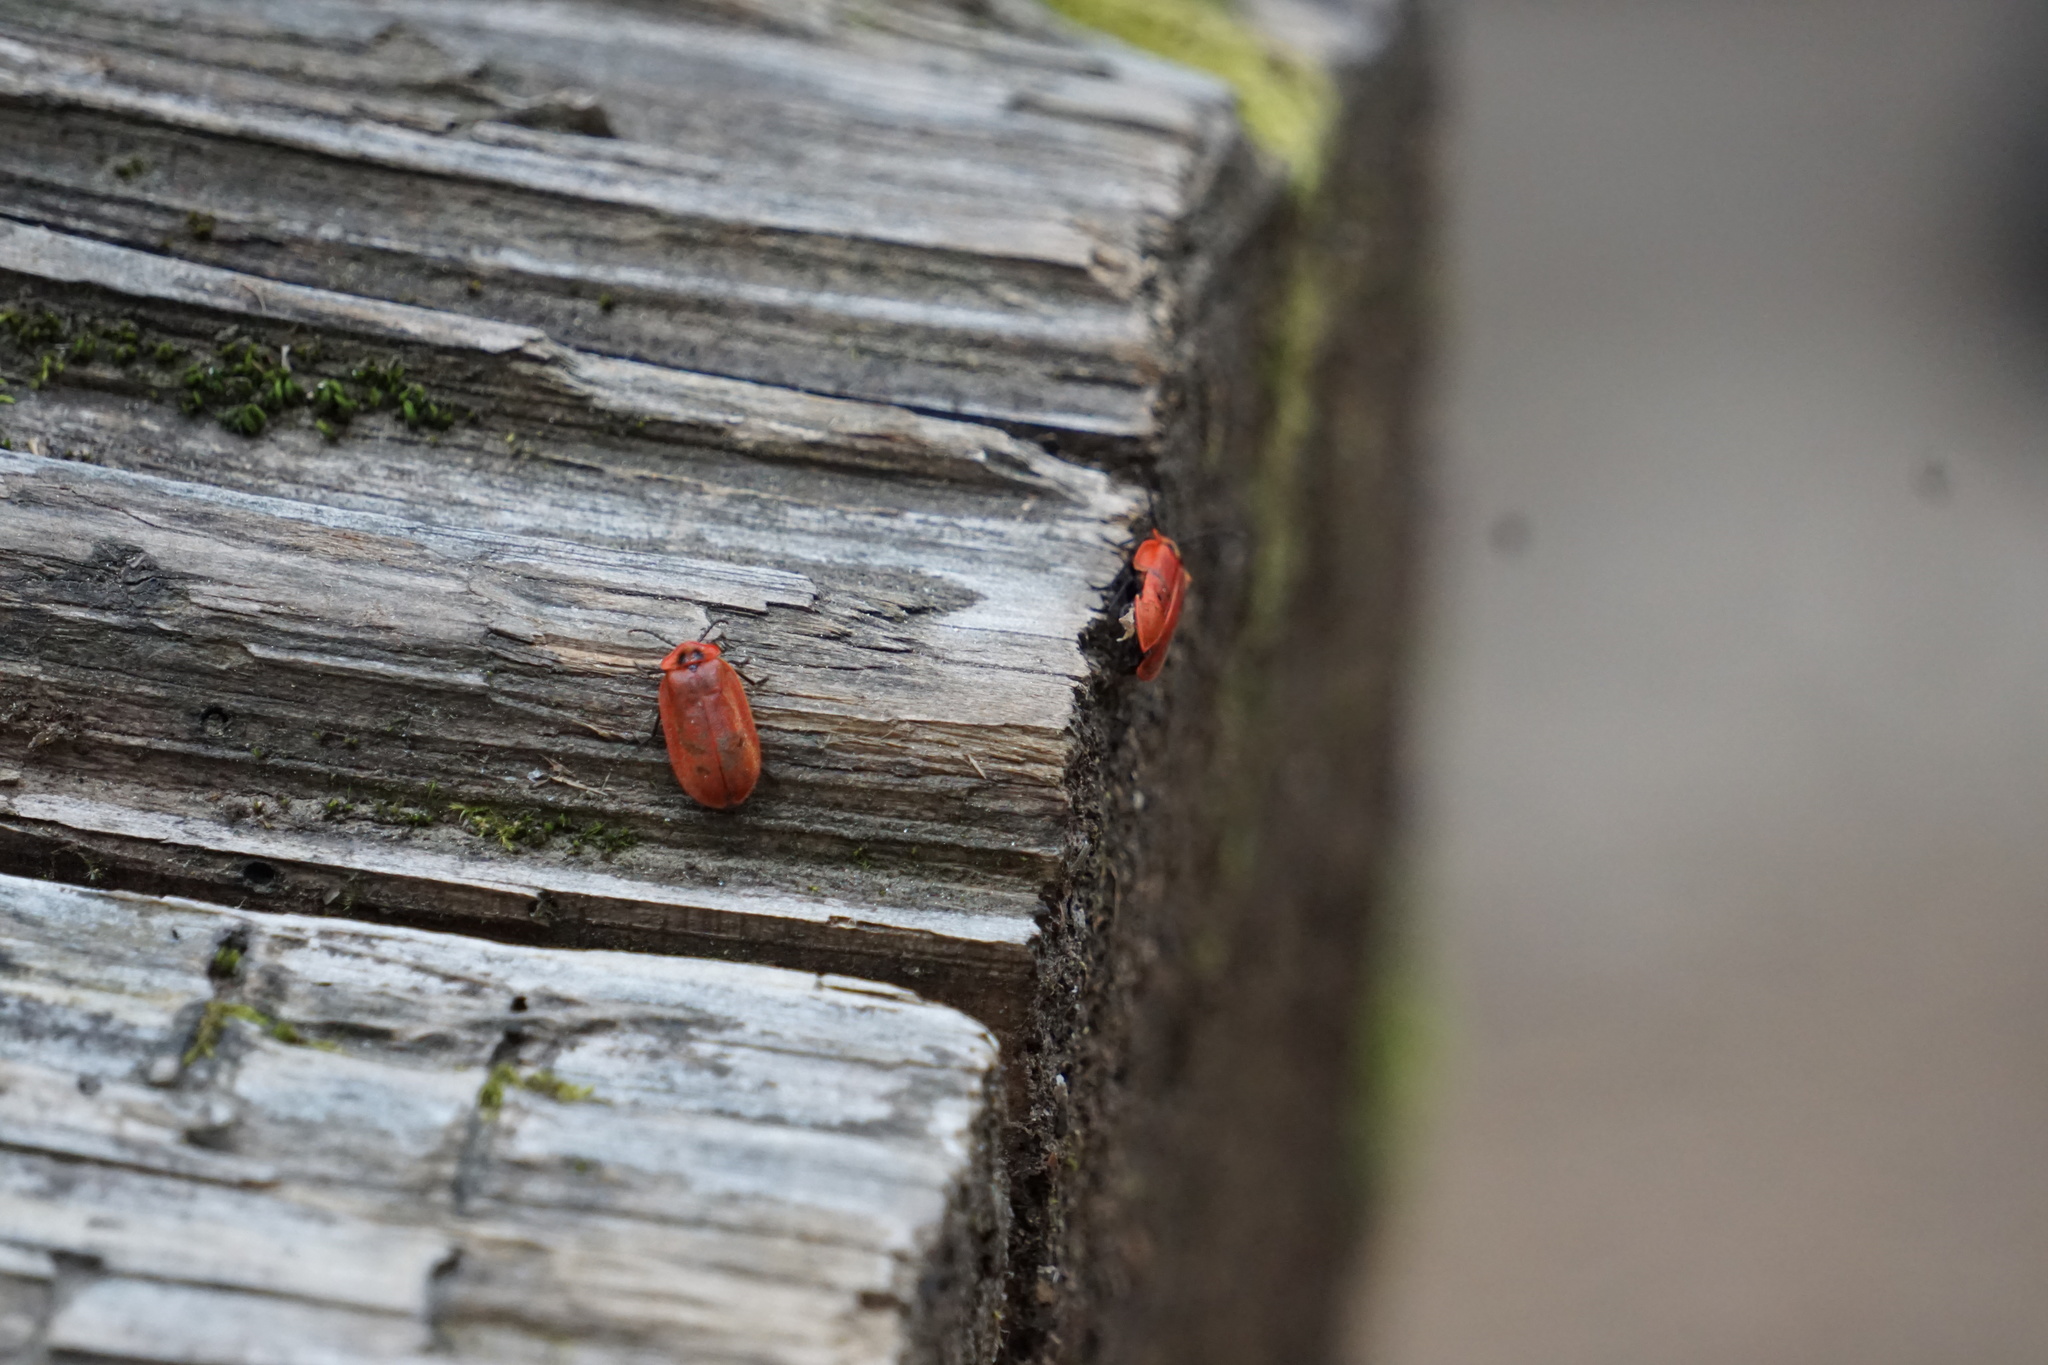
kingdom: Animalia
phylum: Arthropoda
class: Insecta
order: Coleoptera
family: Omethidae
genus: Matheteus
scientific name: Matheteus theveneti
